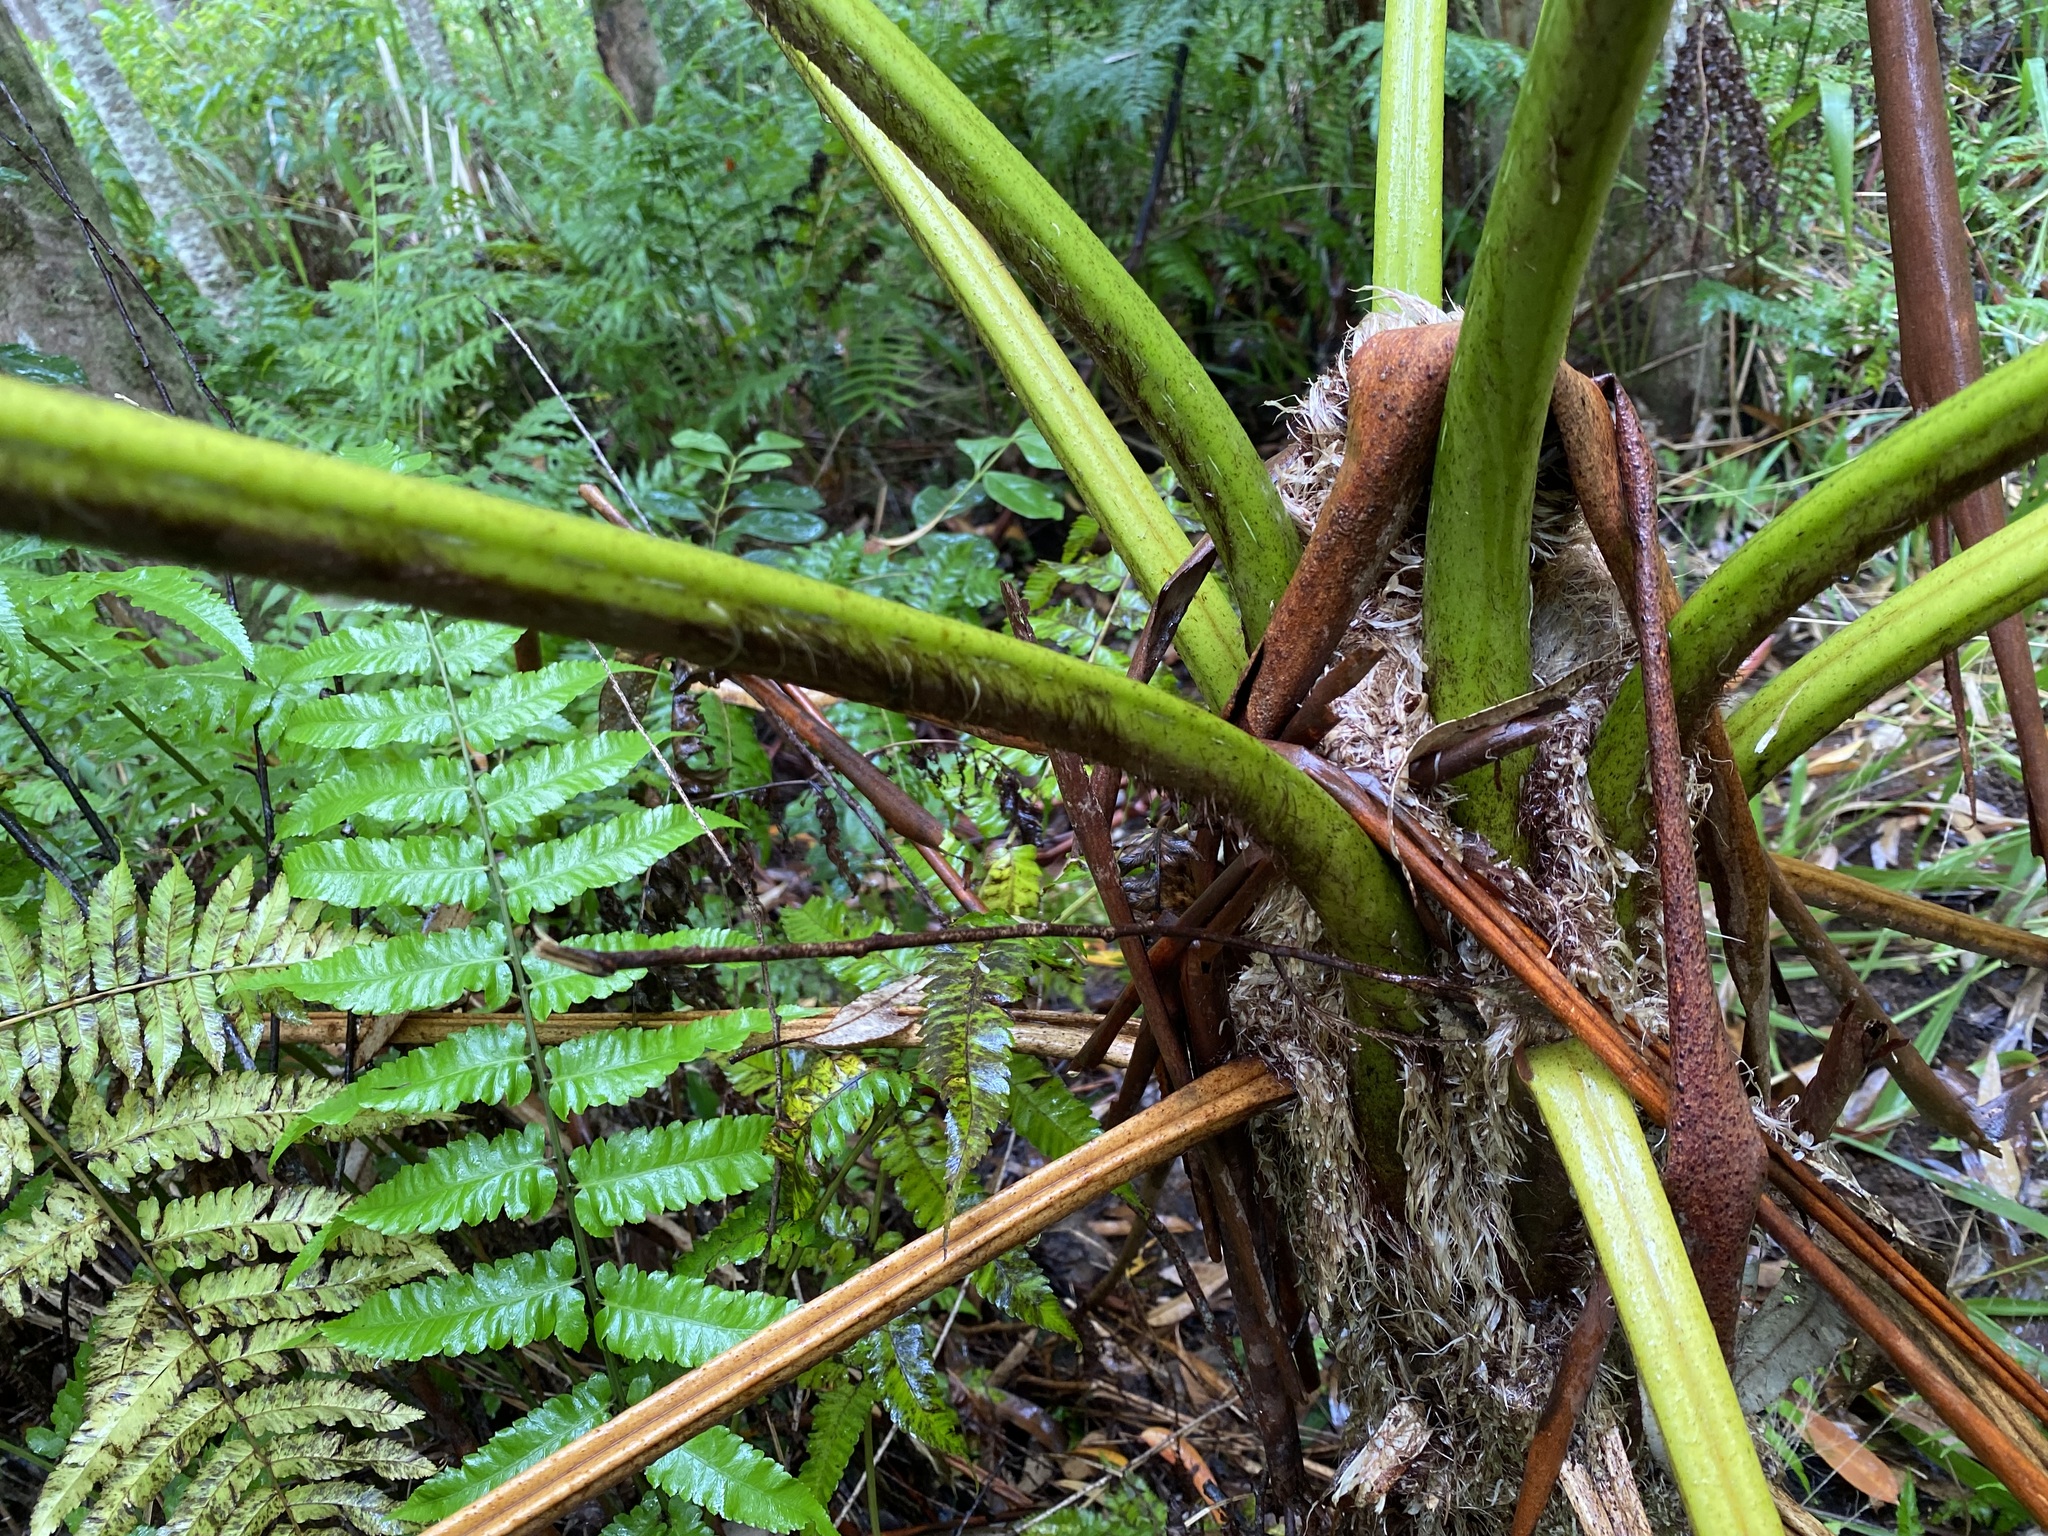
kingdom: Plantae
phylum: Tracheophyta
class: Polypodiopsida
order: Cyatheales
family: Cyatheaceae
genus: Sphaeropteris
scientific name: Sphaeropteris cooperi
